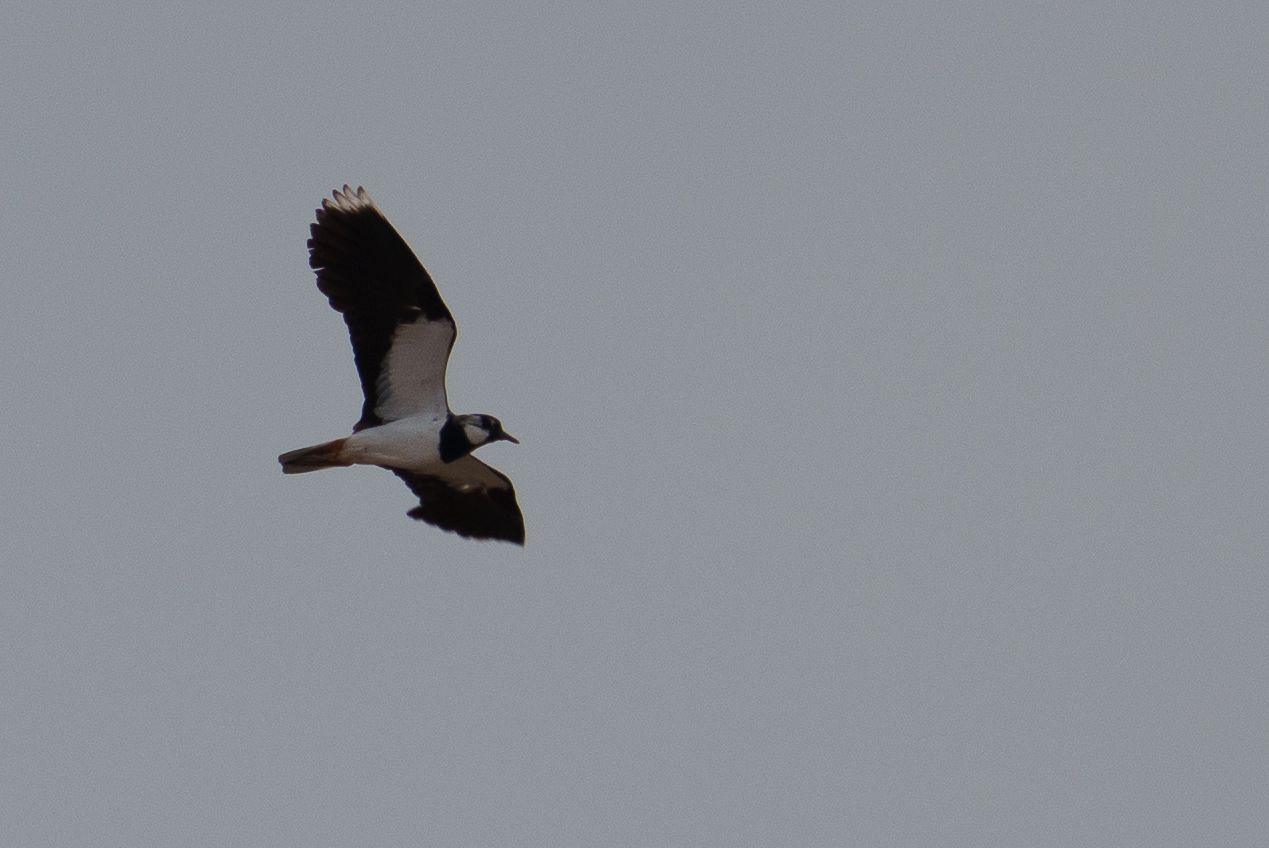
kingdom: Animalia
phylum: Chordata
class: Aves
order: Charadriiformes
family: Charadriidae
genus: Vanellus
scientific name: Vanellus vanellus
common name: Northern lapwing
